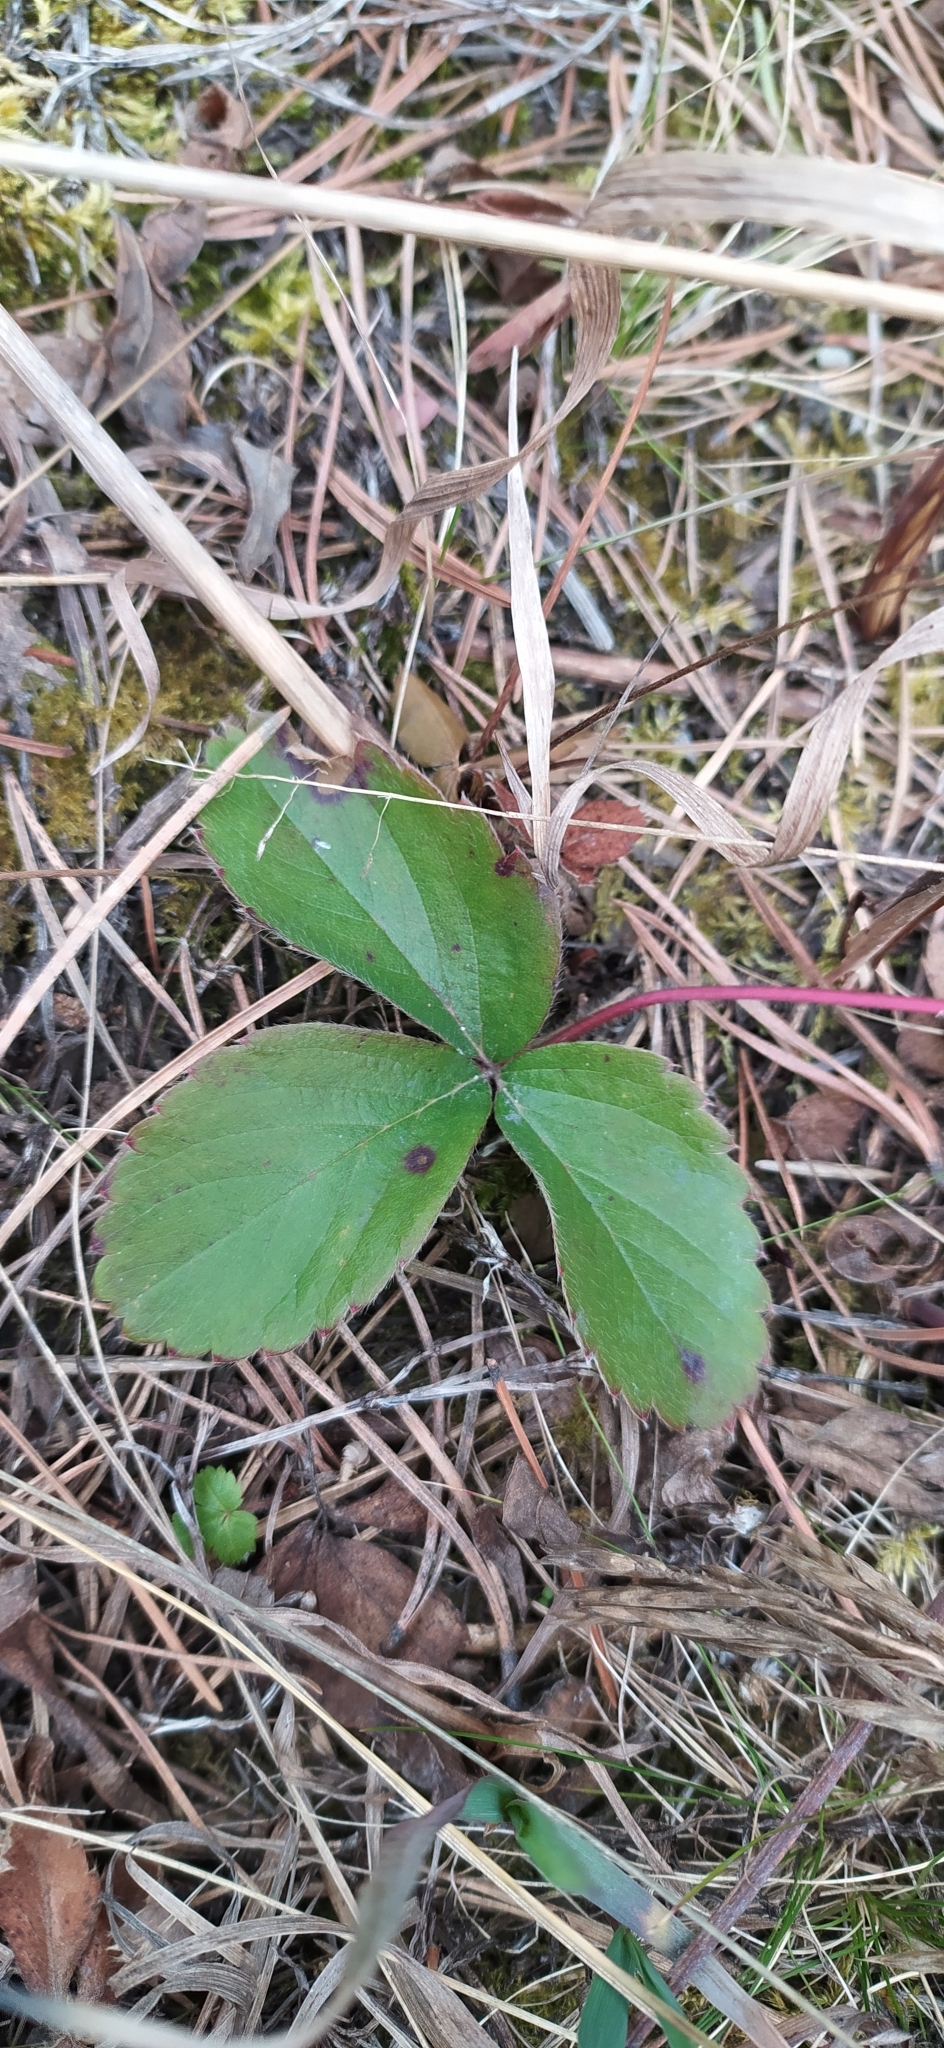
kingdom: Plantae
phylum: Tracheophyta
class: Magnoliopsida
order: Rosales
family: Rosaceae
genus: Fragaria
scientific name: Fragaria vesca
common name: Wild strawberry
